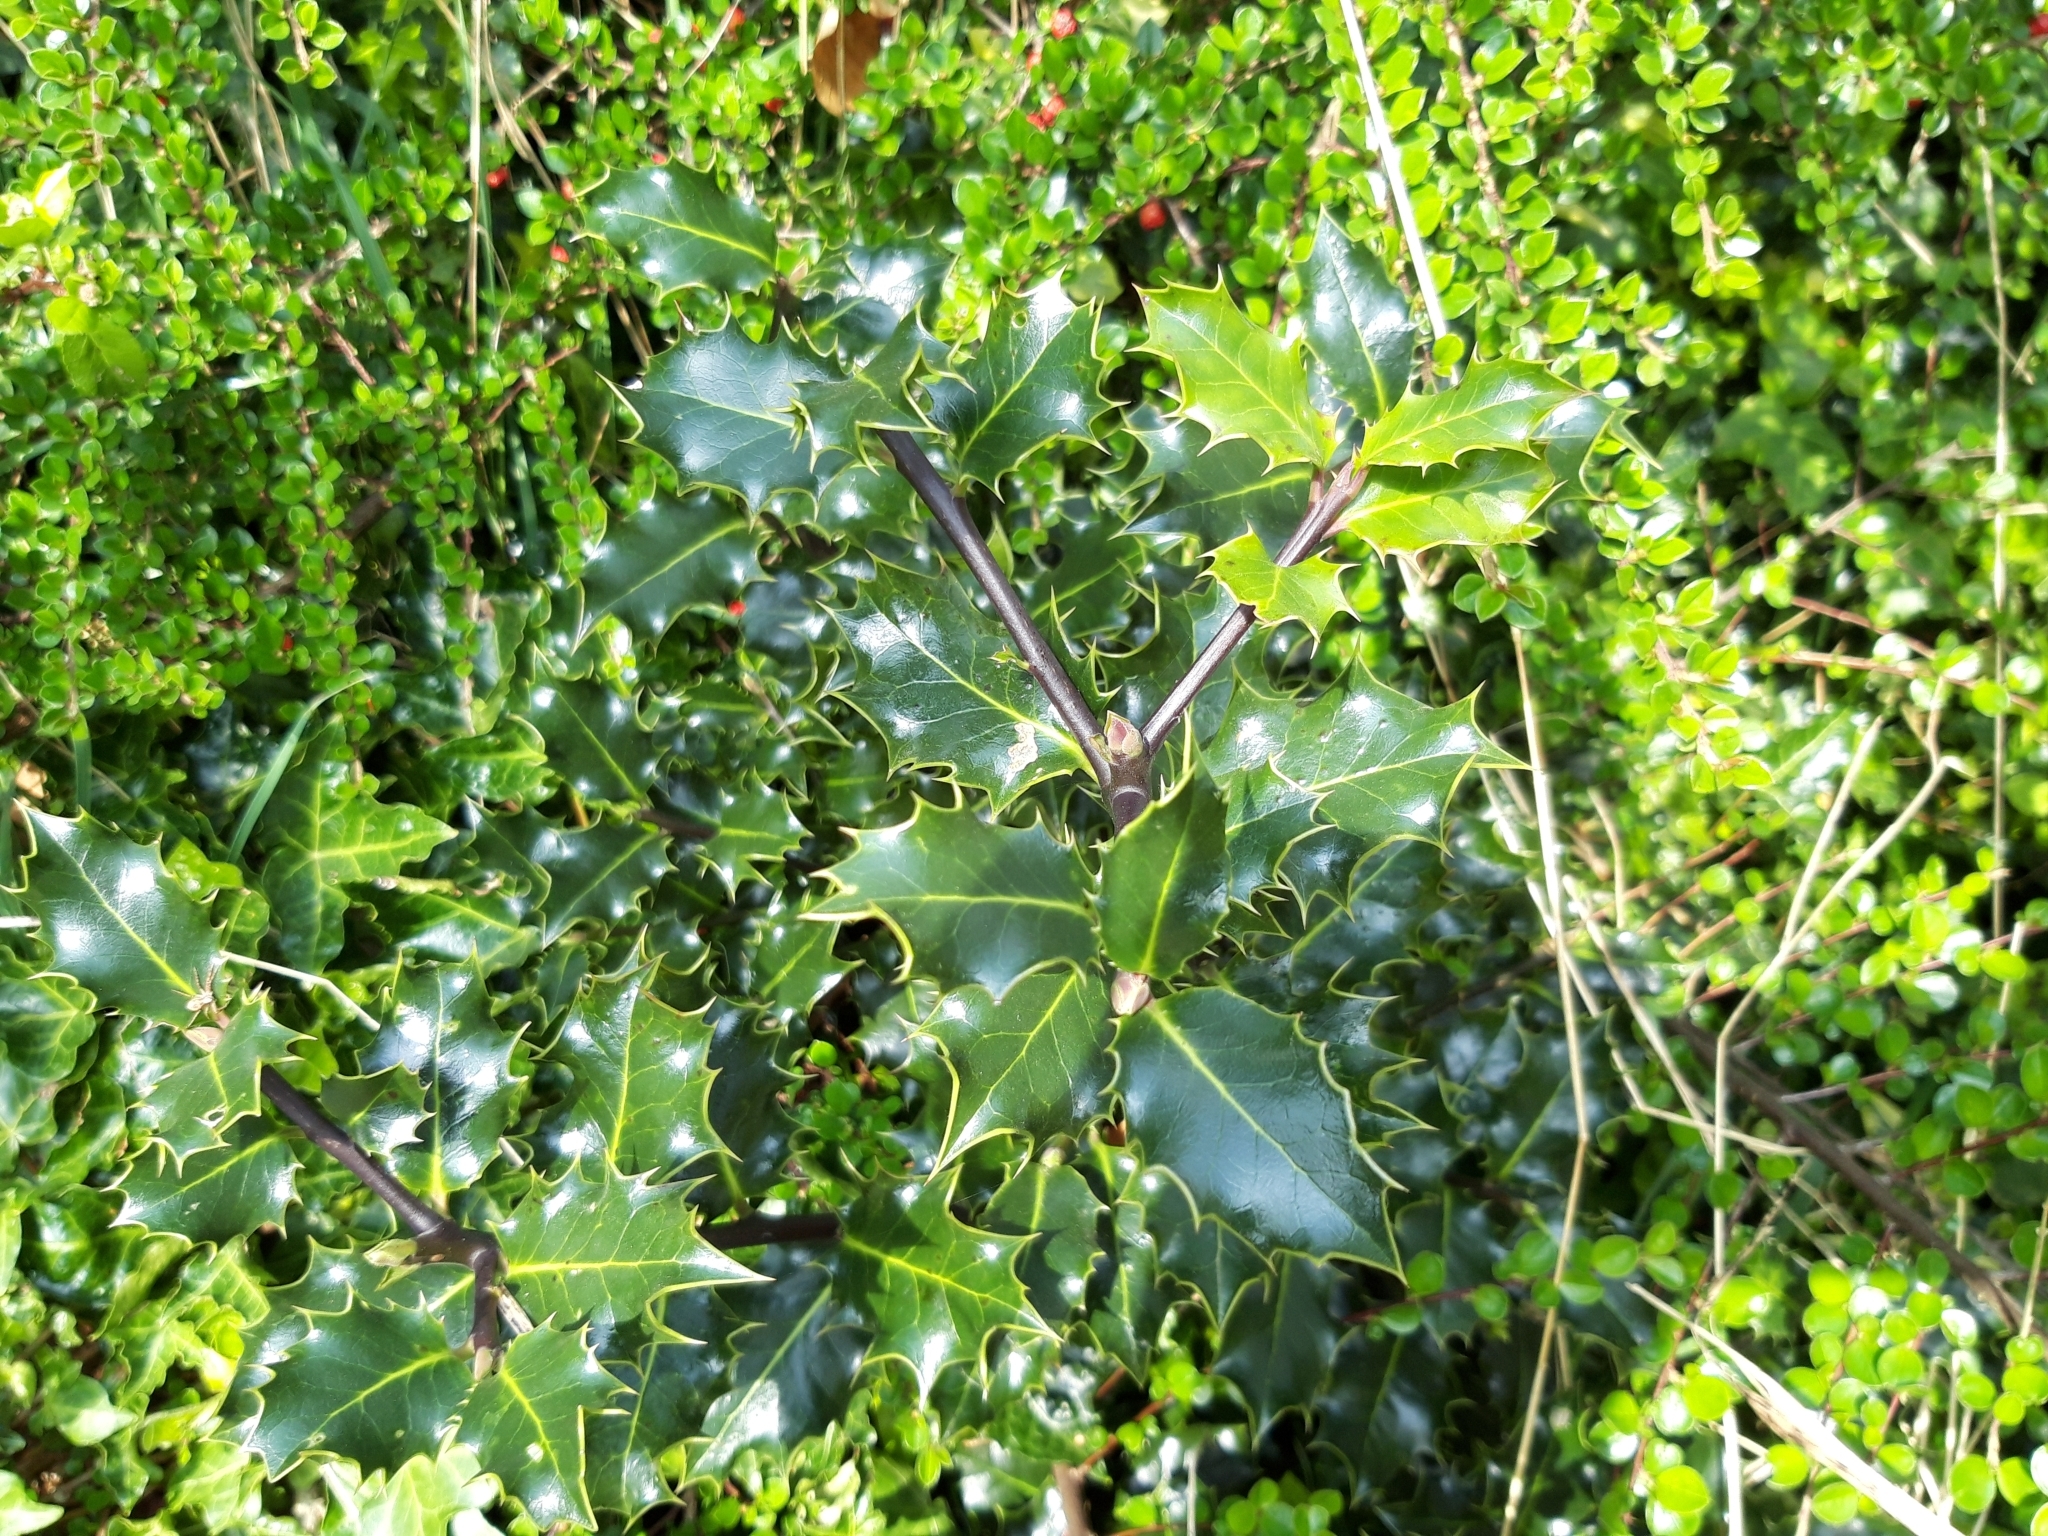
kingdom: Plantae
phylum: Tracheophyta
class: Magnoliopsida
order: Aquifoliales
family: Aquifoliaceae
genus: Ilex
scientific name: Ilex aquifolium
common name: English holly
